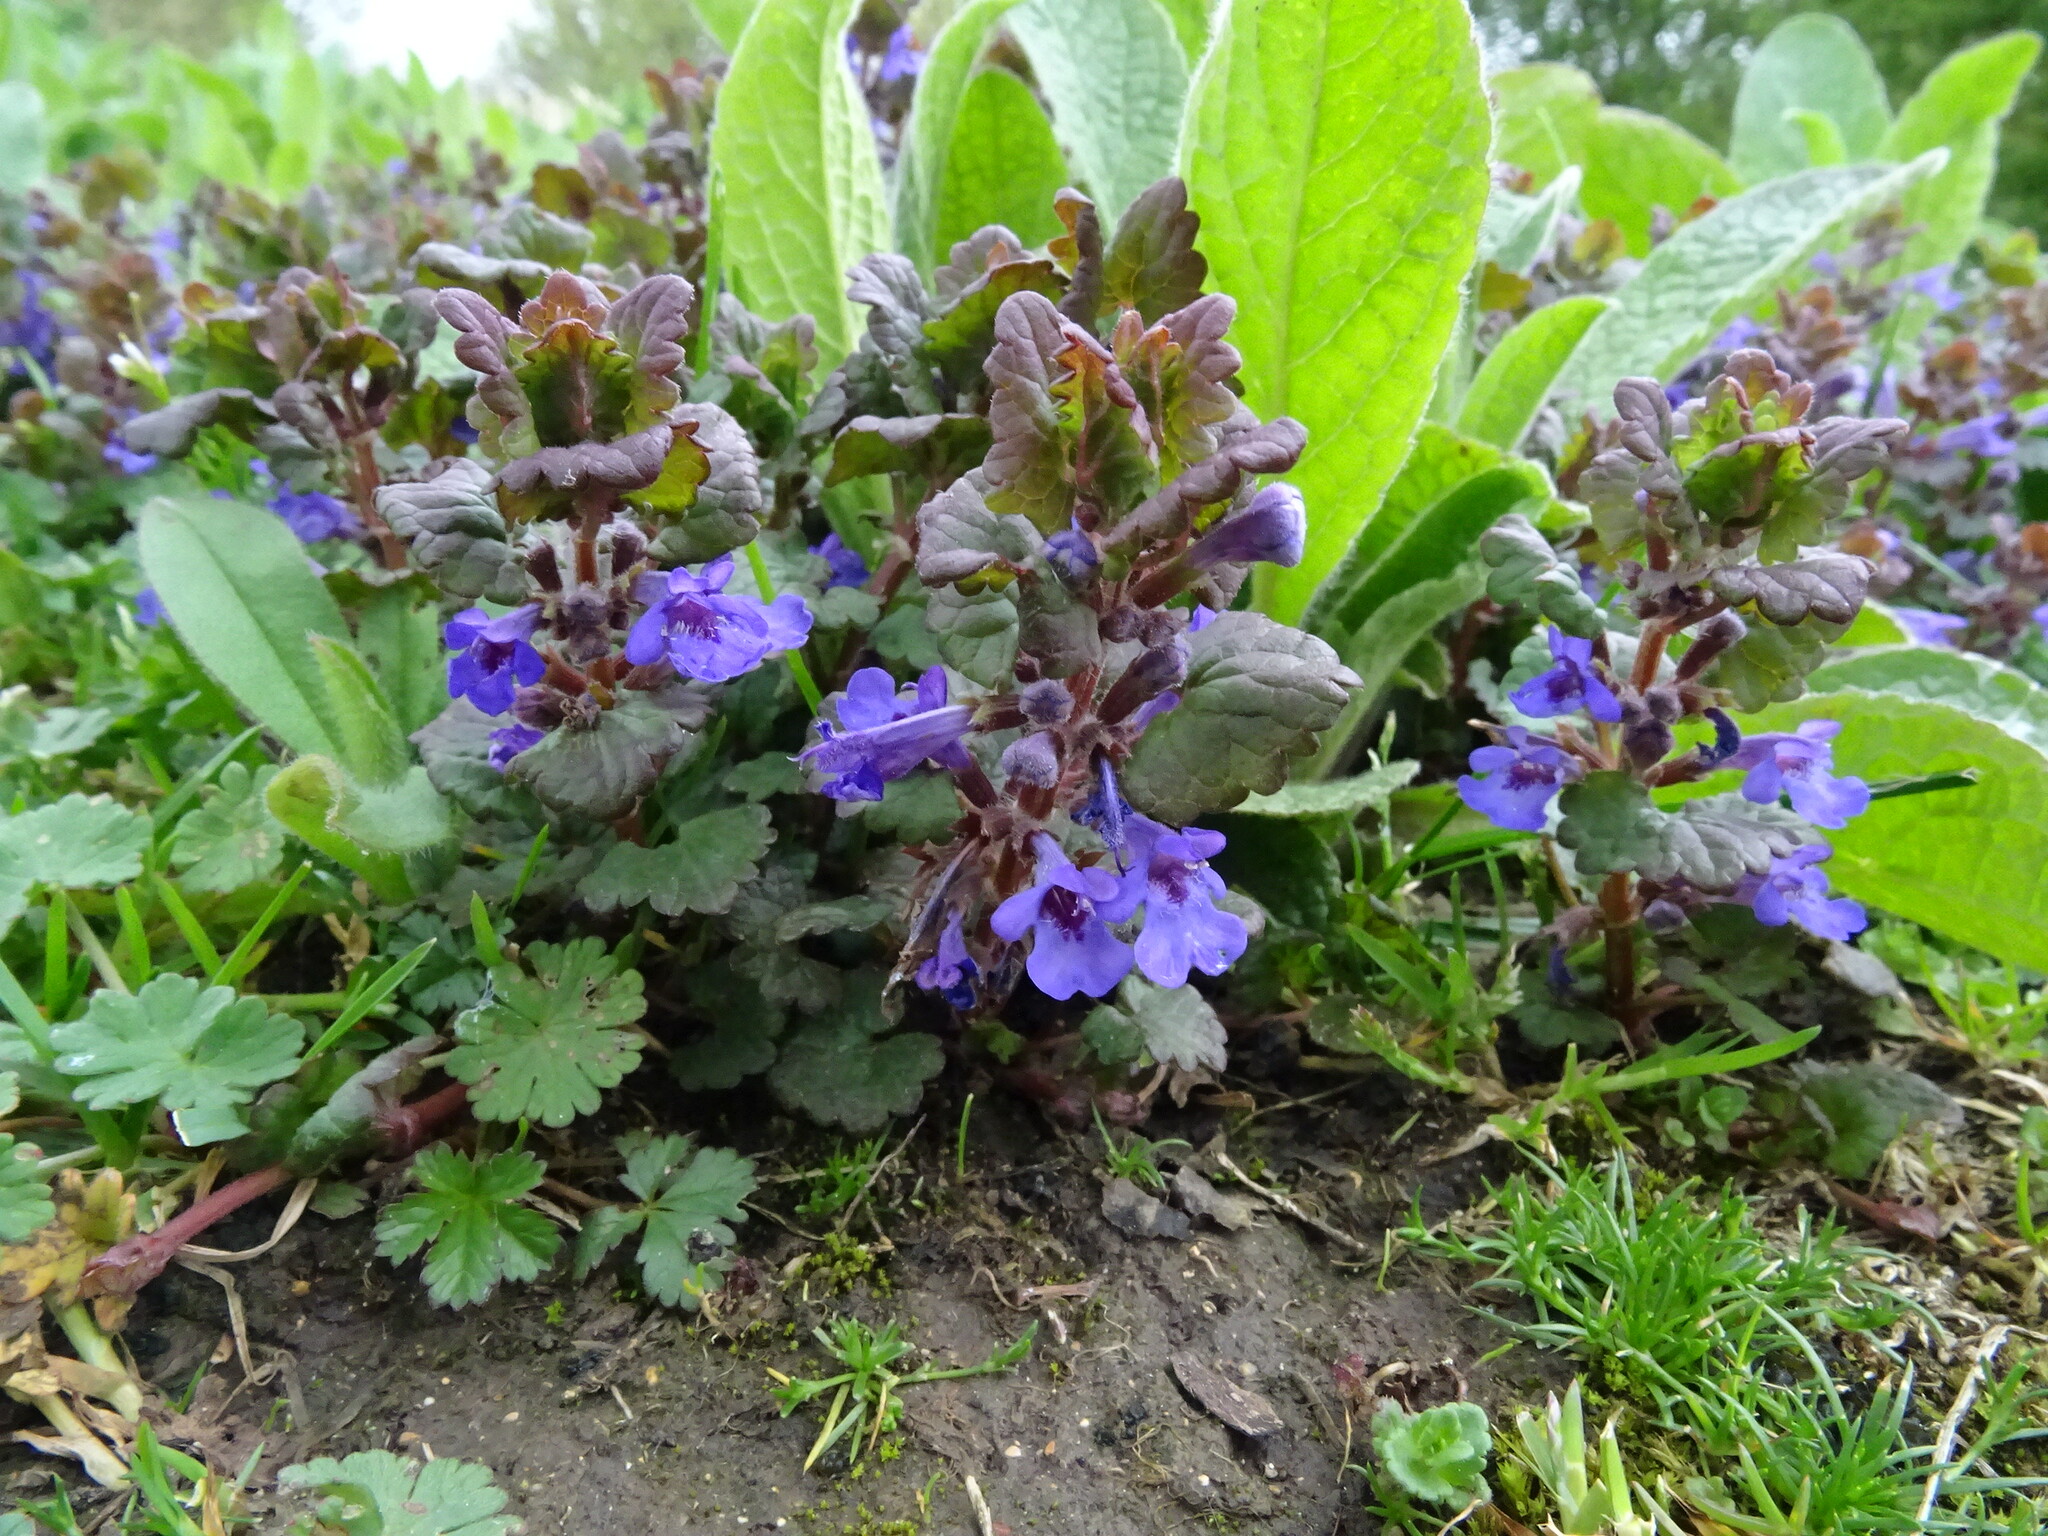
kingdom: Plantae
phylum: Tracheophyta
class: Magnoliopsida
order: Lamiales
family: Lamiaceae
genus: Glechoma
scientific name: Glechoma hederacea
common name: Ground ivy
